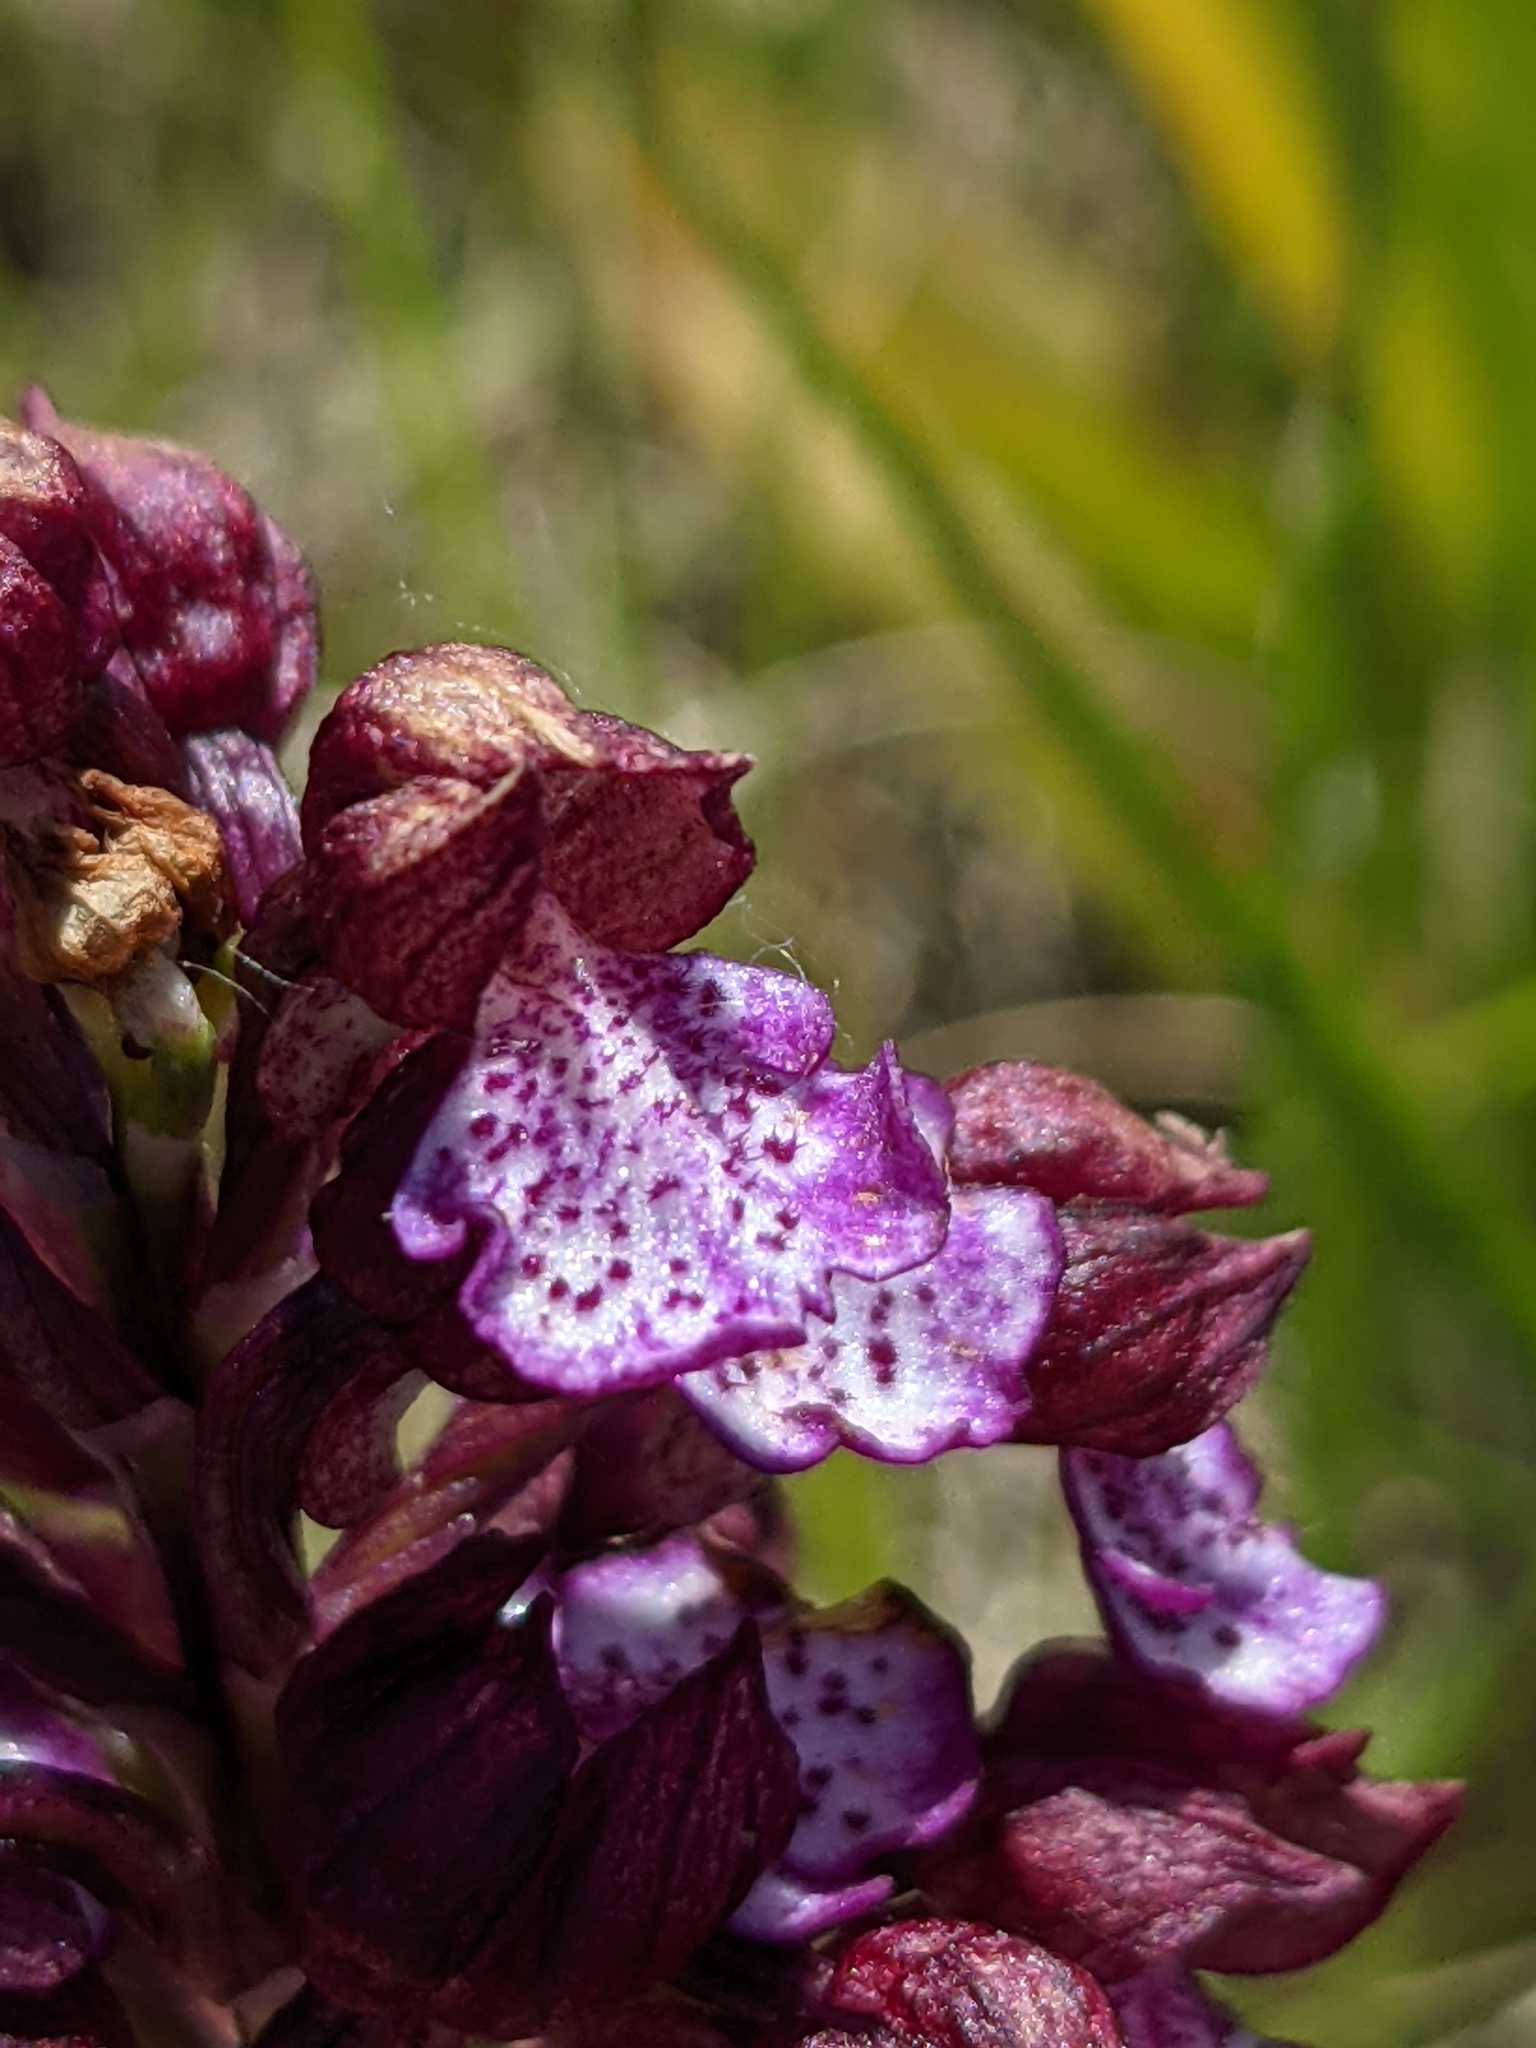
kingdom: Plantae
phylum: Tracheophyta
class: Liliopsida
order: Asparagales
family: Orchidaceae
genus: Orchis
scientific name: Orchis purpurea
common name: Lady orchid
